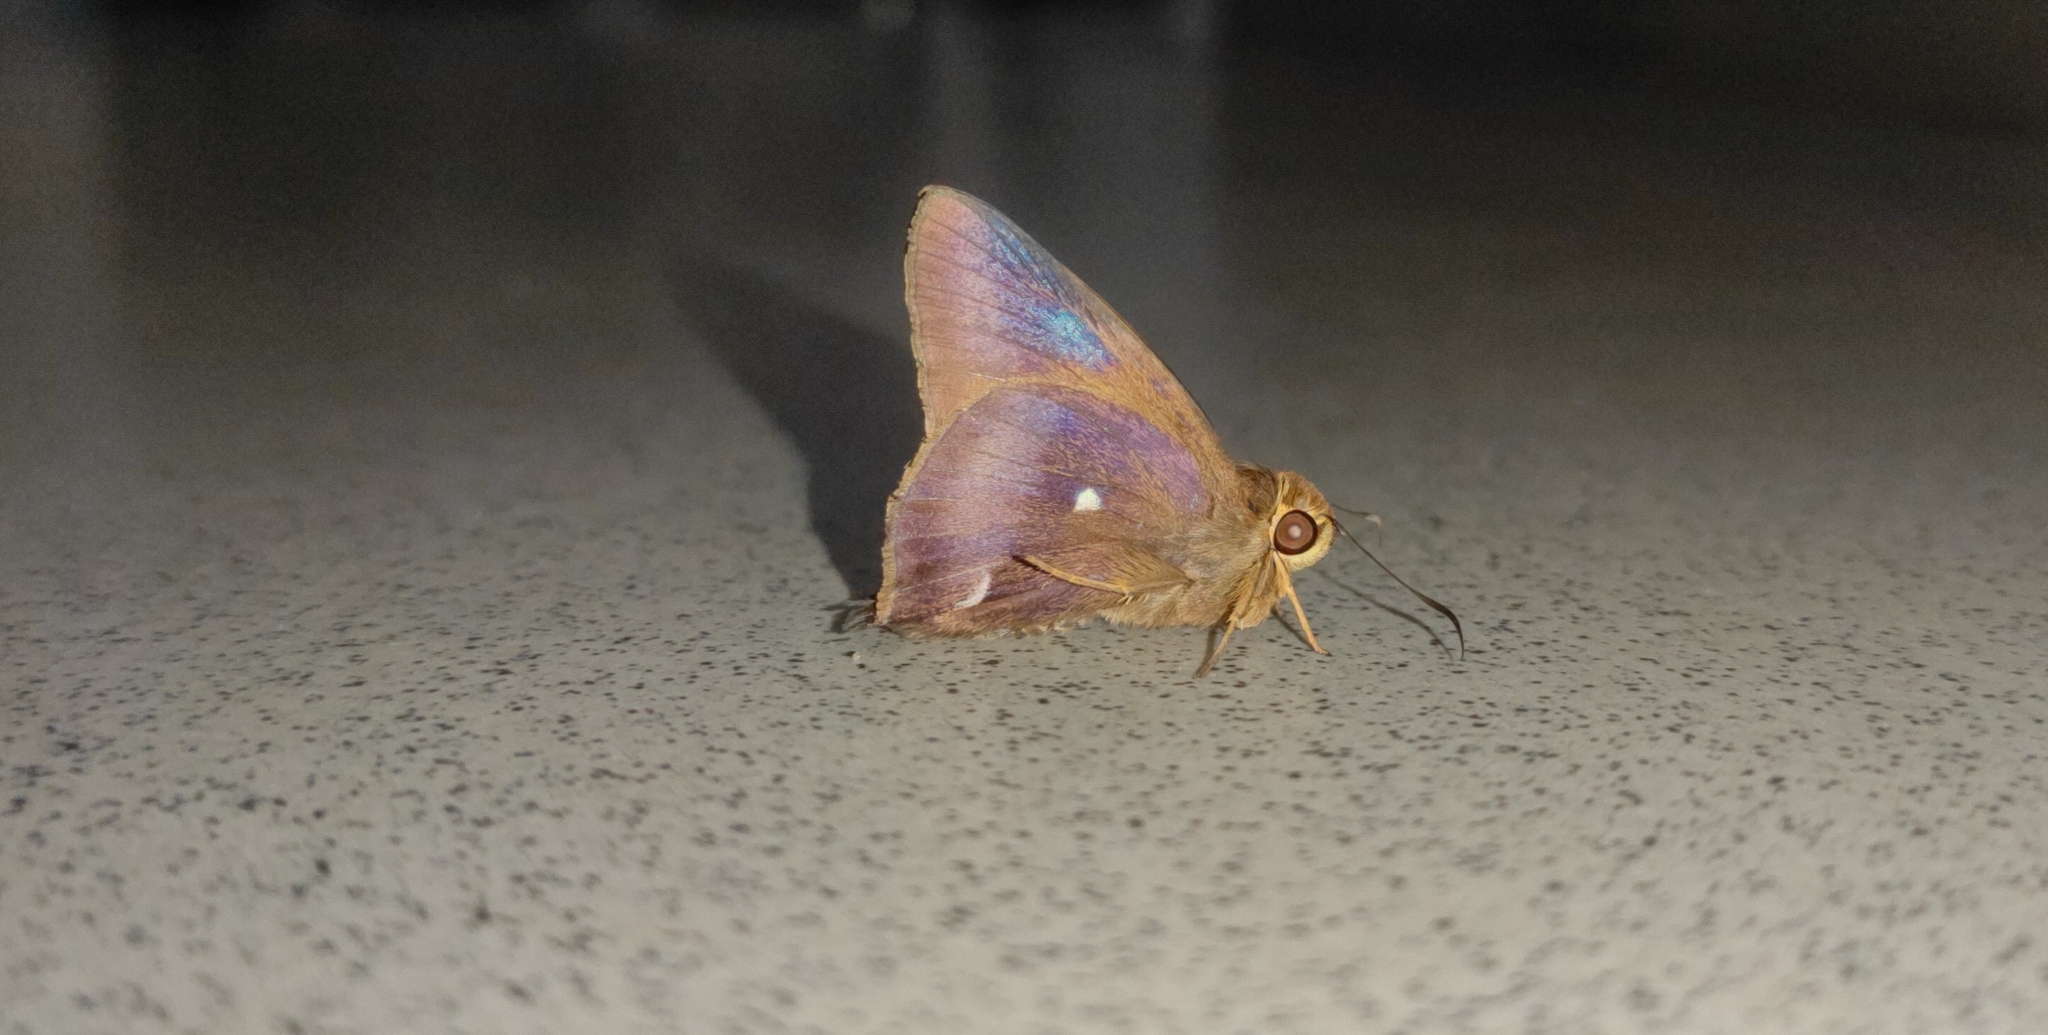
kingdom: Animalia
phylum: Arthropoda
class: Insecta
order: Lepidoptera
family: Hesperiidae
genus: Hasora
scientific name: Hasora badra
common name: Common awl
